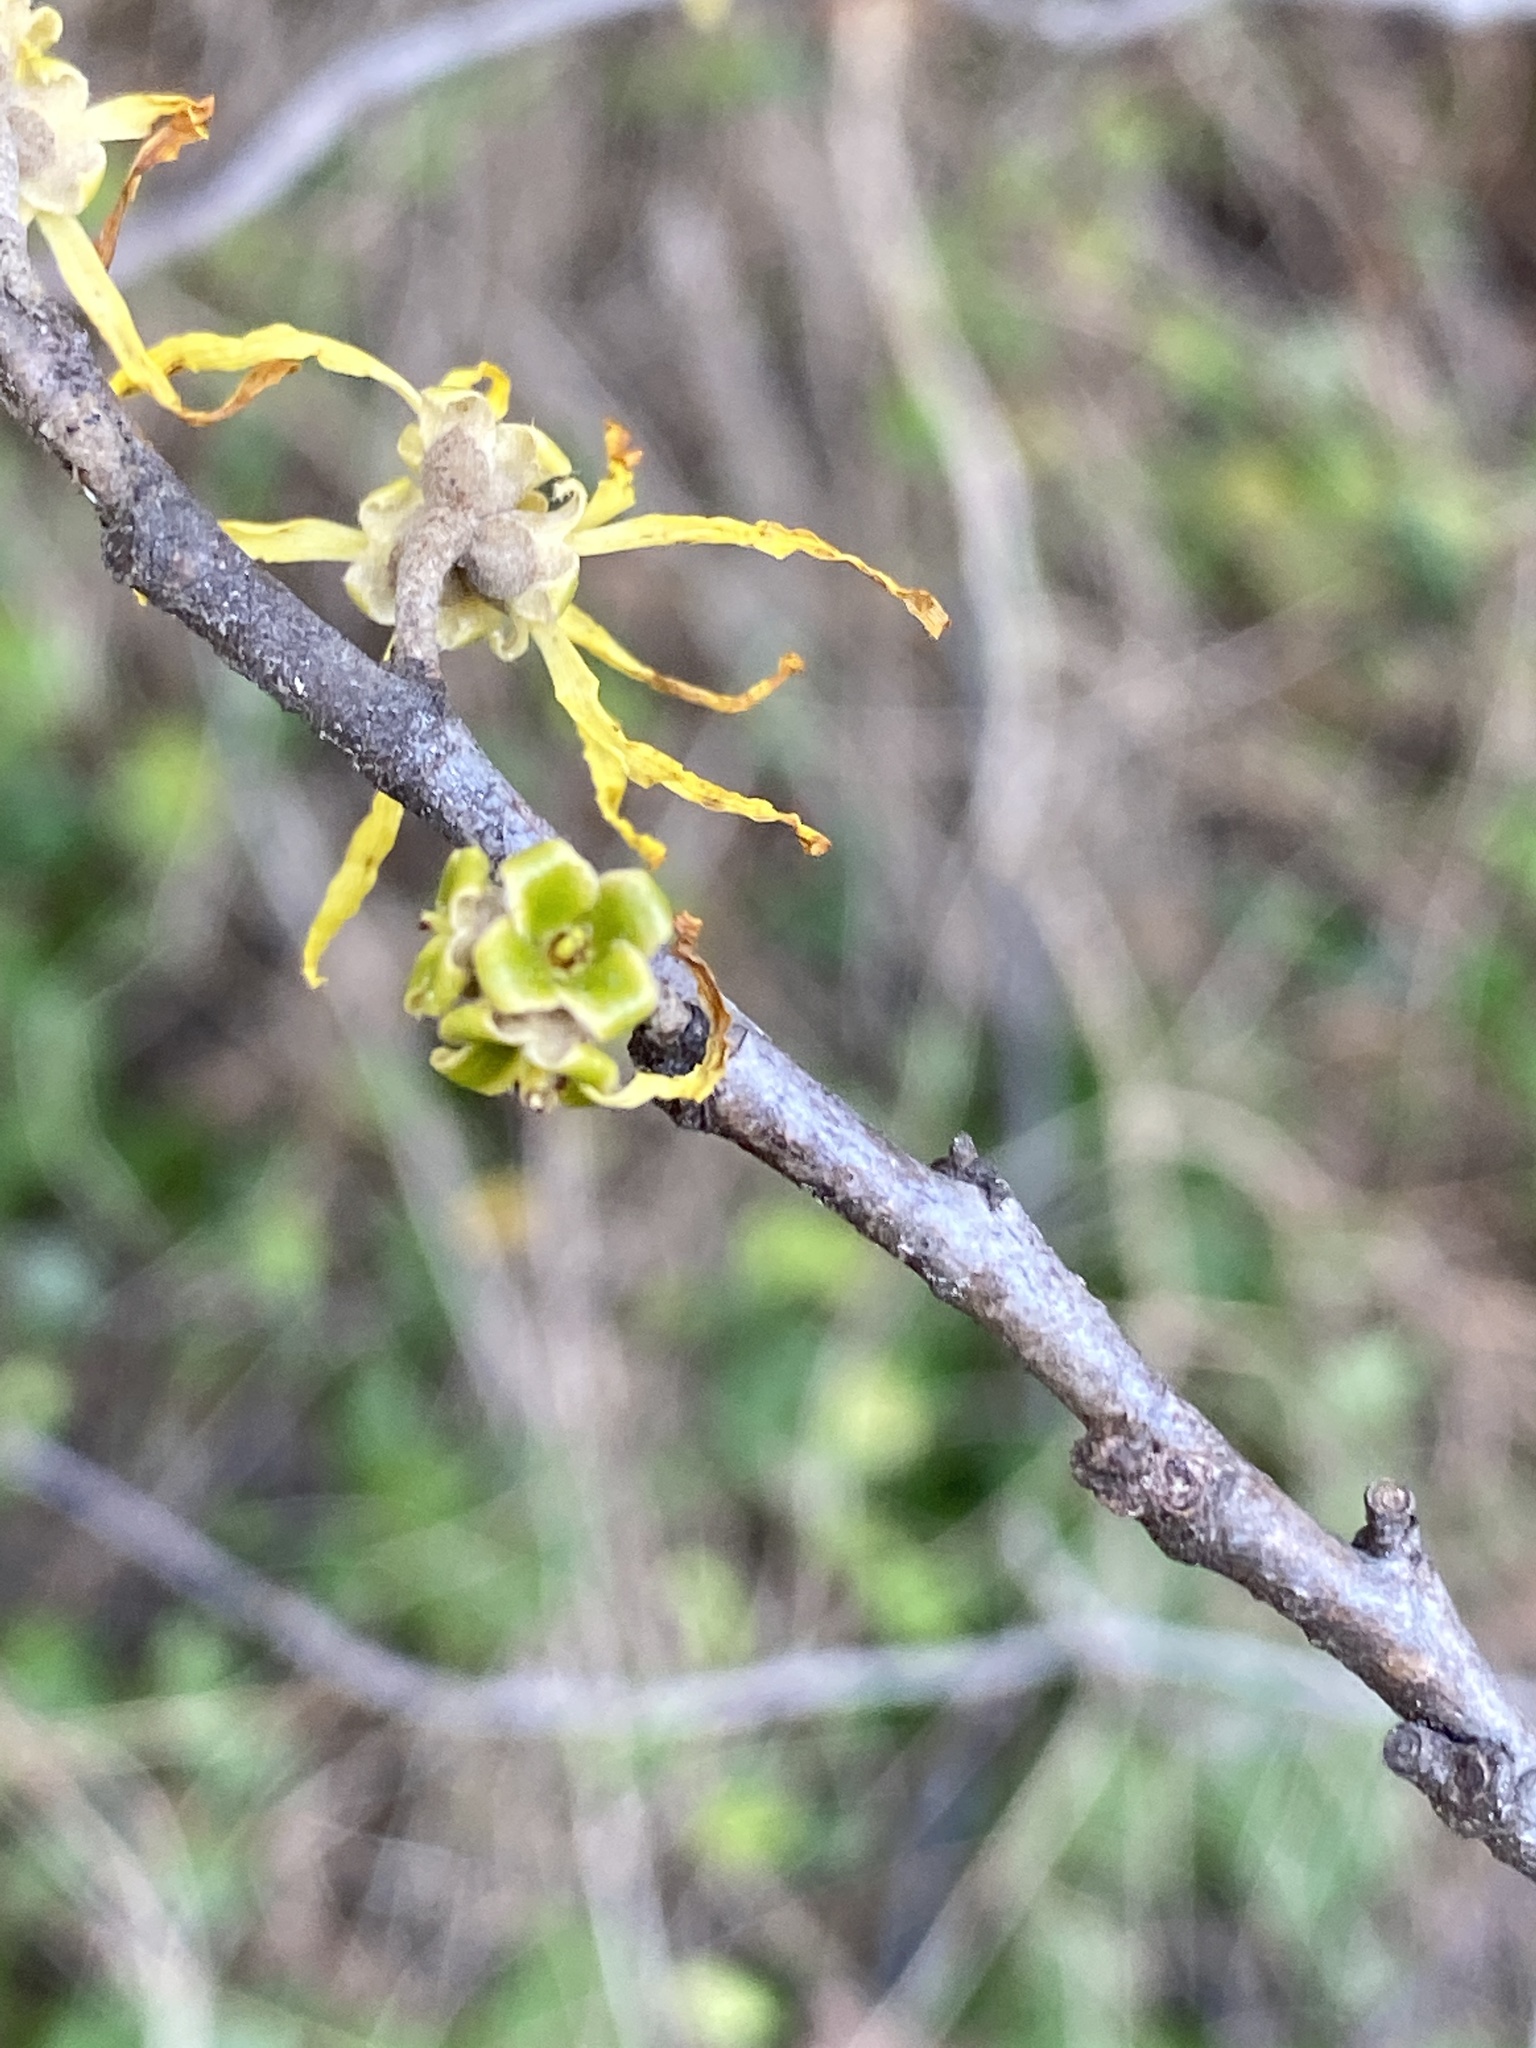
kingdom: Plantae
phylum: Tracheophyta
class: Magnoliopsida
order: Saxifragales
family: Hamamelidaceae
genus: Hamamelis
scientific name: Hamamelis virginiana
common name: Witch-hazel
